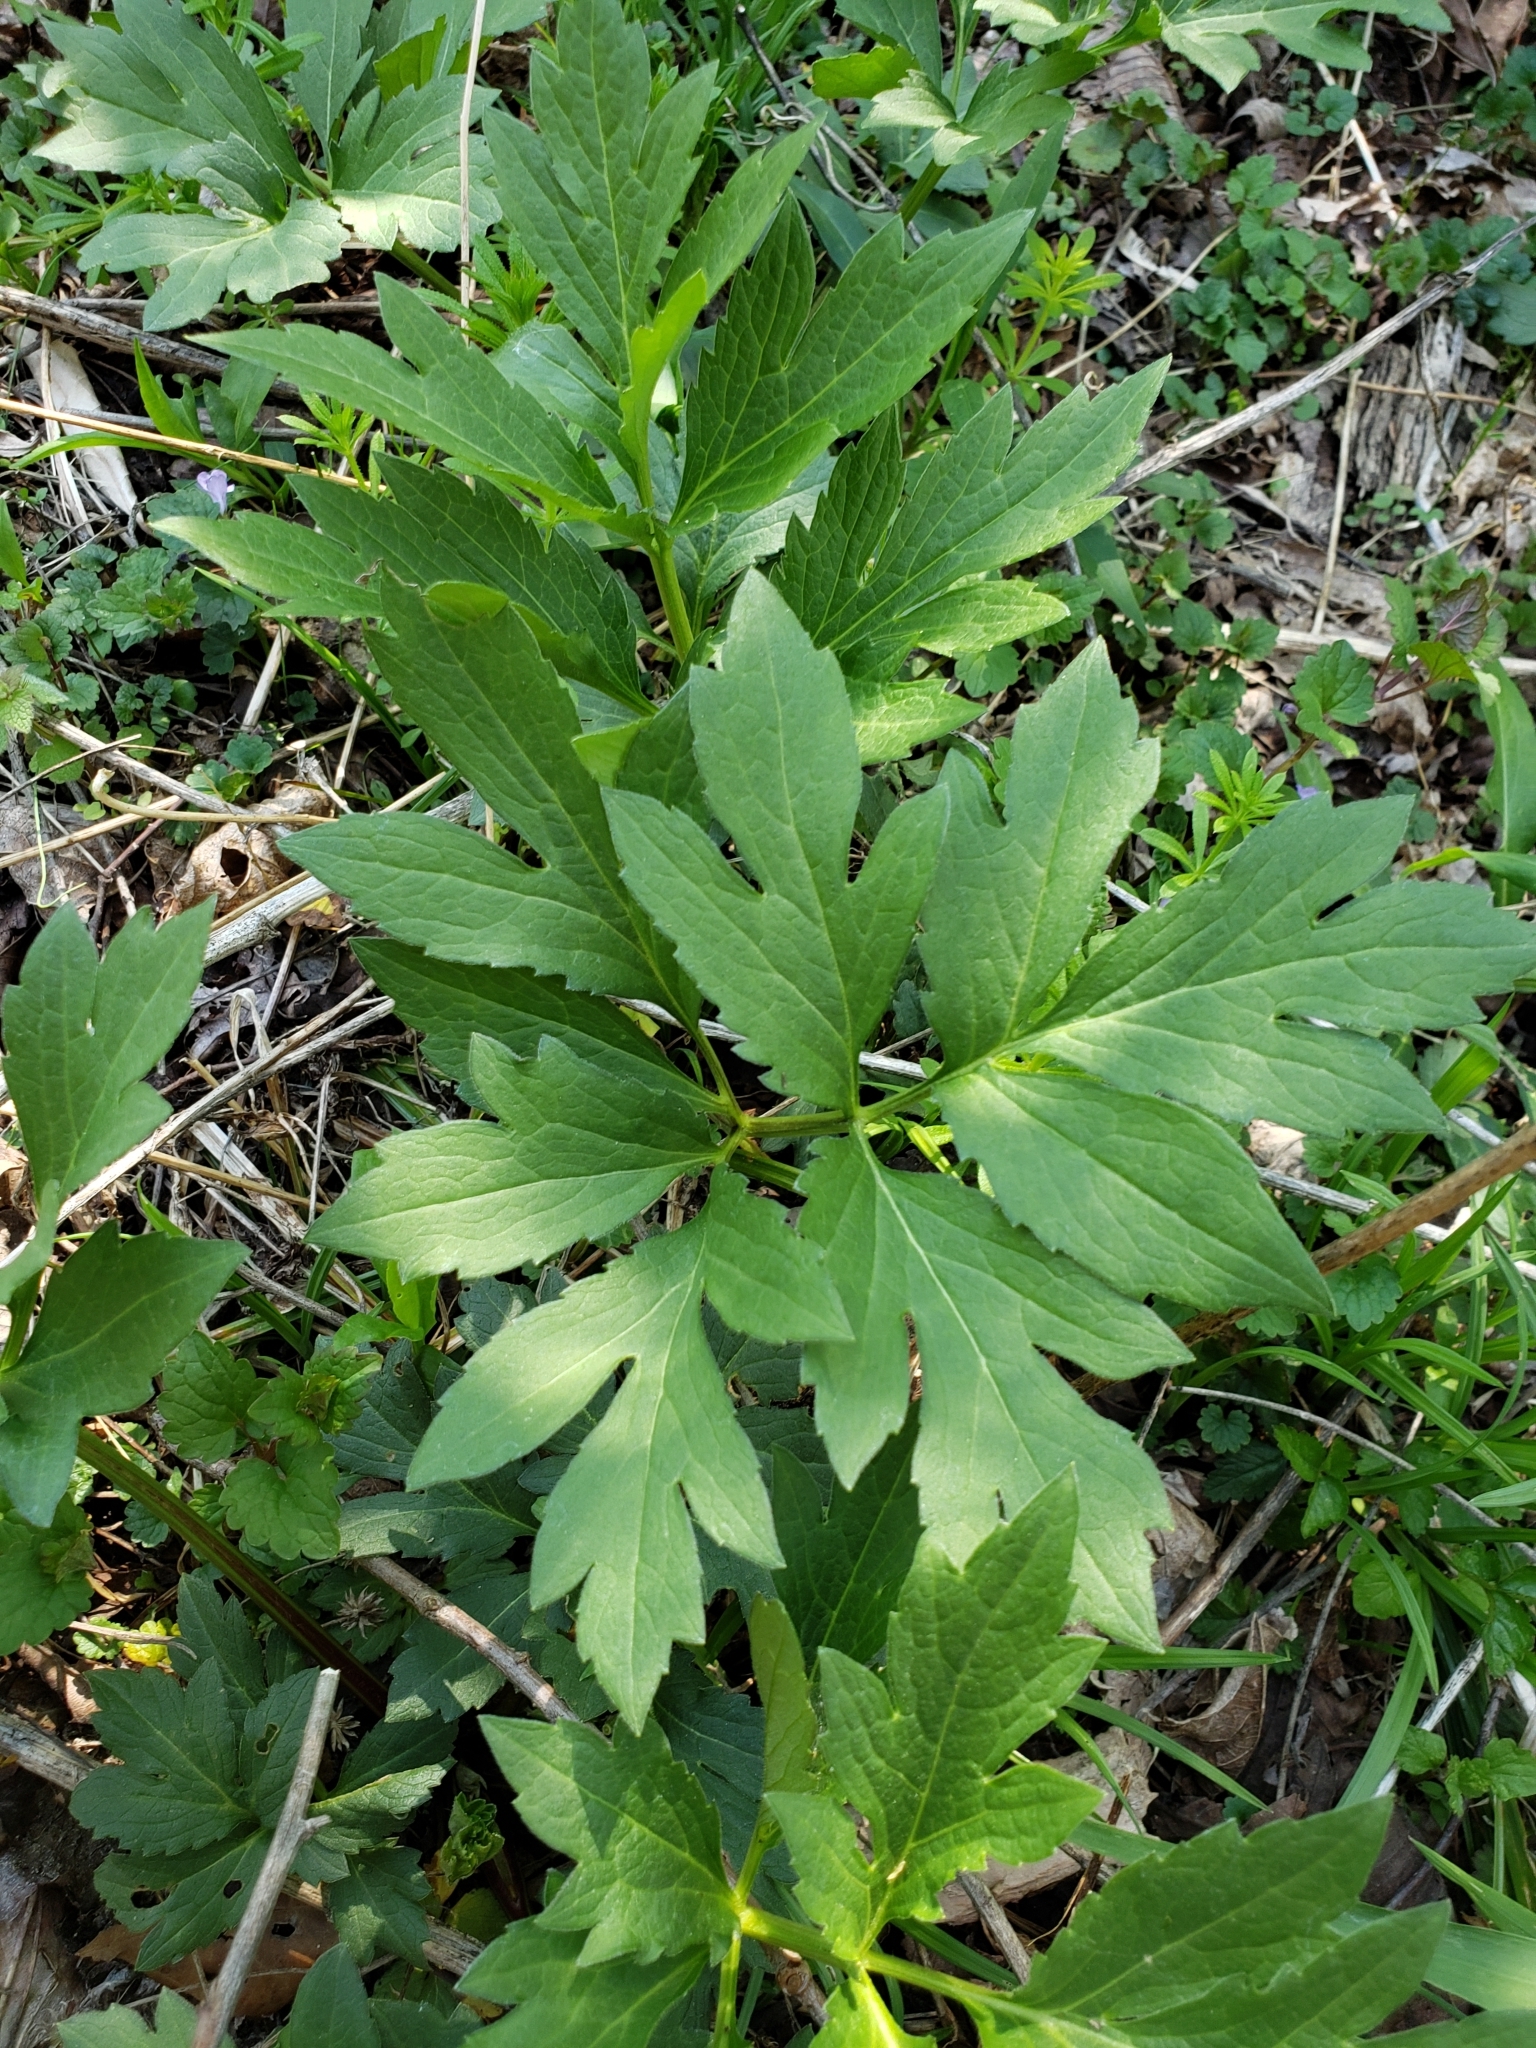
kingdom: Plantae
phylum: Tracheophyta
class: Magnoliopsida
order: Asterales
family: Asteraceae
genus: Rudbeckia
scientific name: Rudbeckia laciniata
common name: Coneflower
